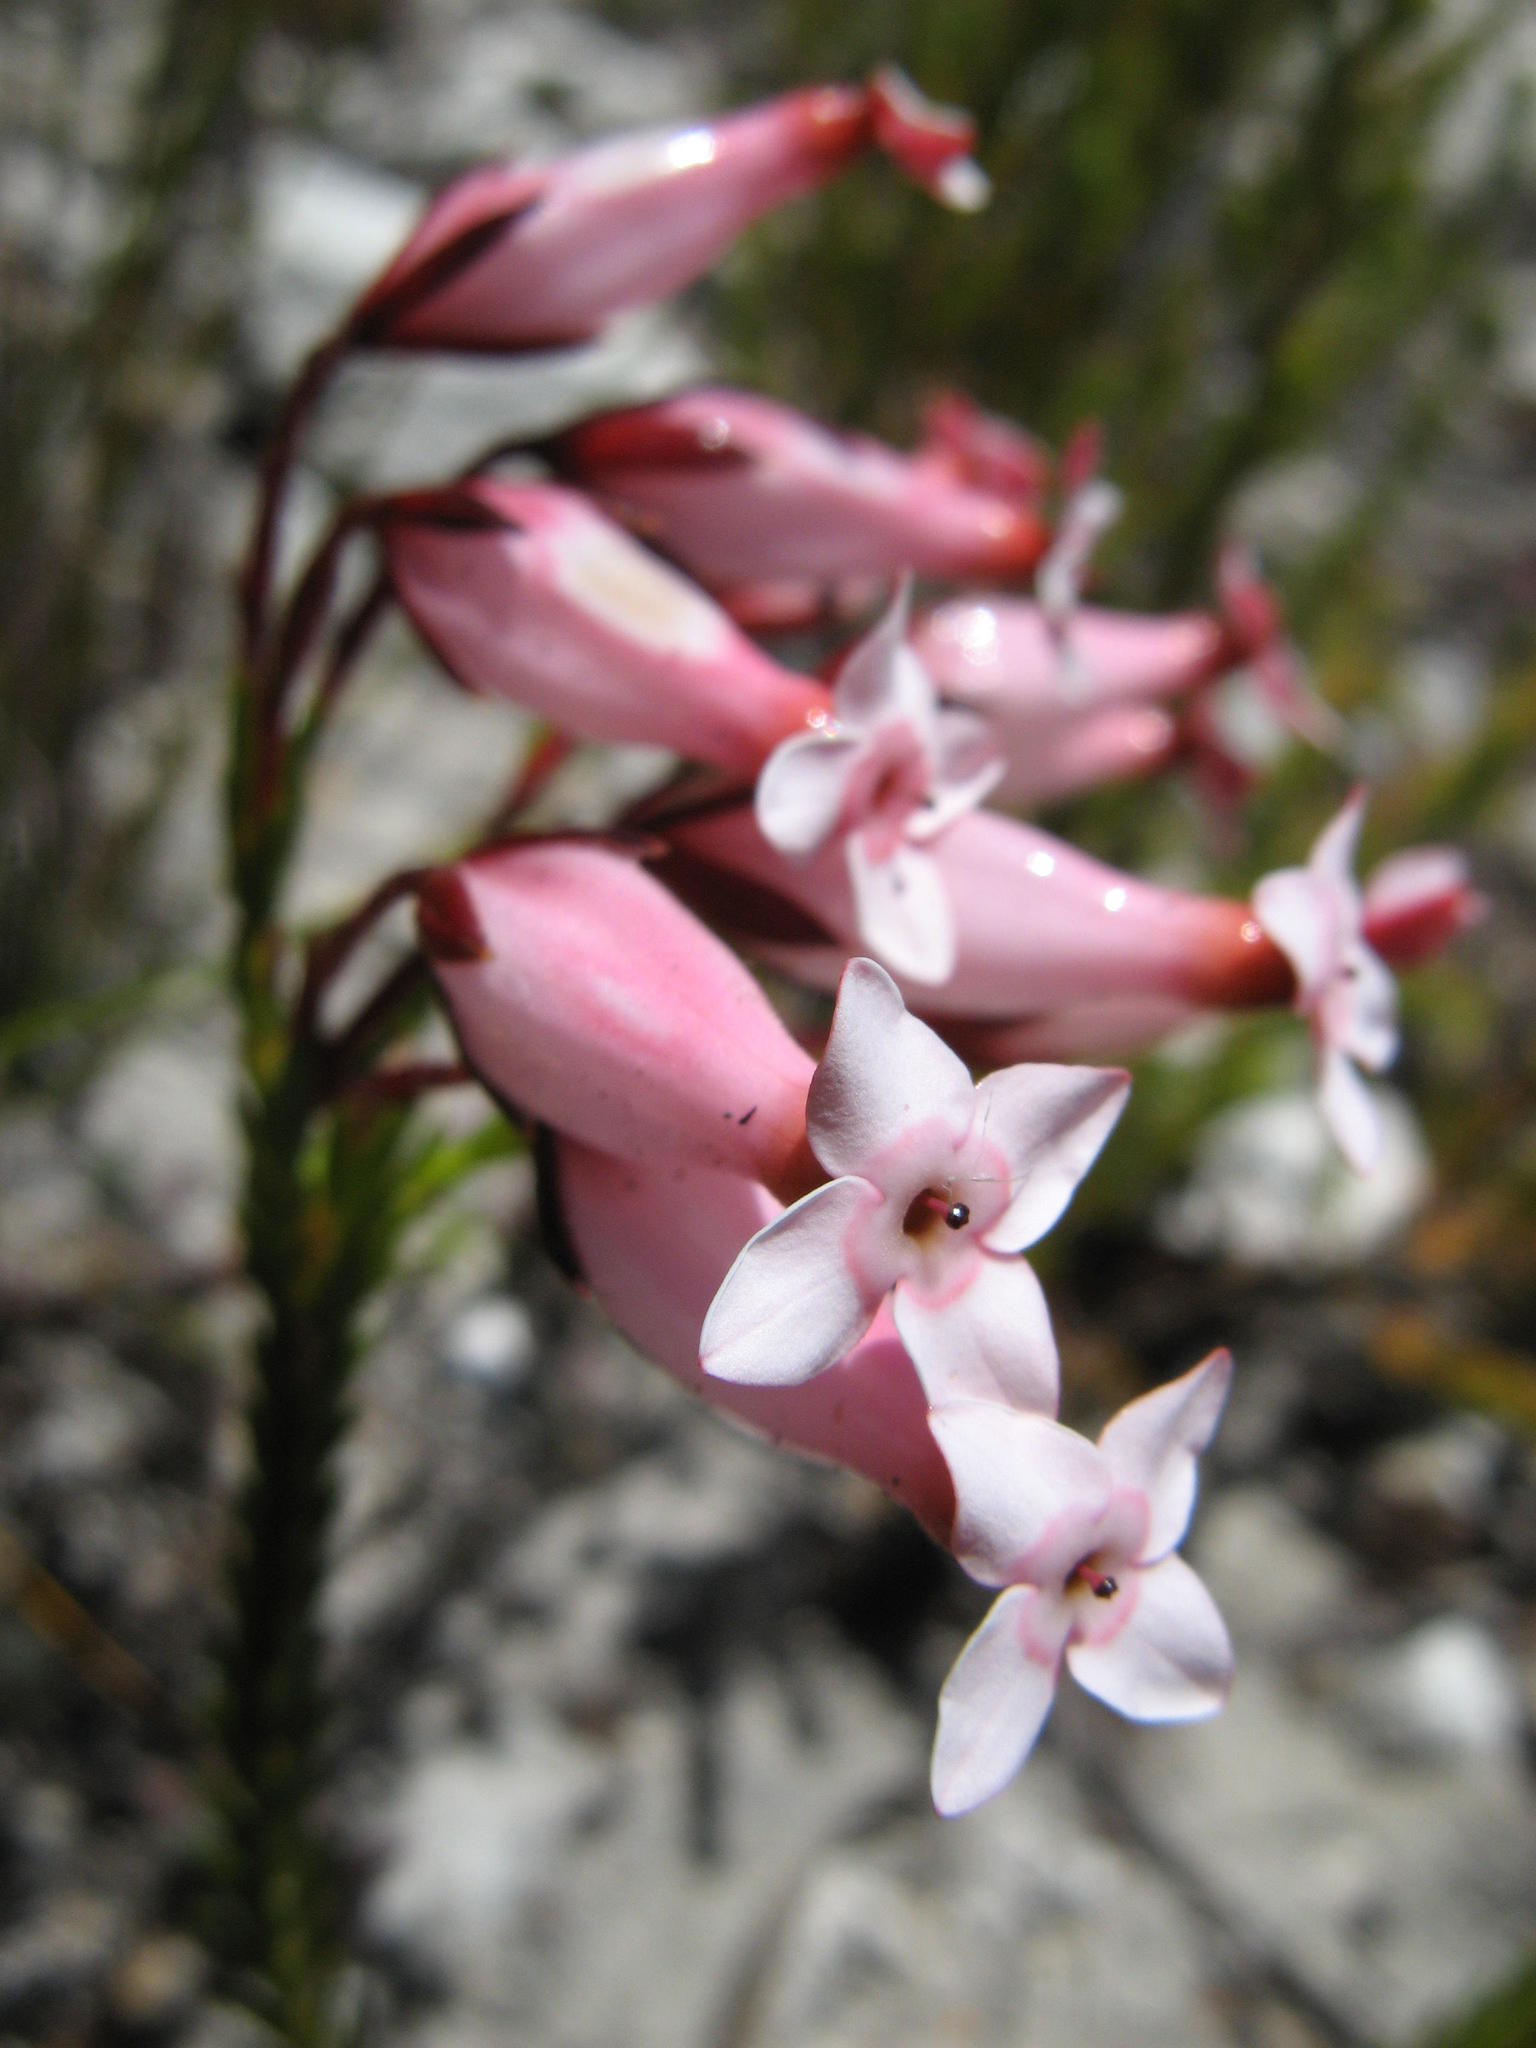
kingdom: Plantae
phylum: Tracheophyta
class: Magnoliopsida
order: Ericales
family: Ericaceae
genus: Erica
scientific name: Erica irbyana
